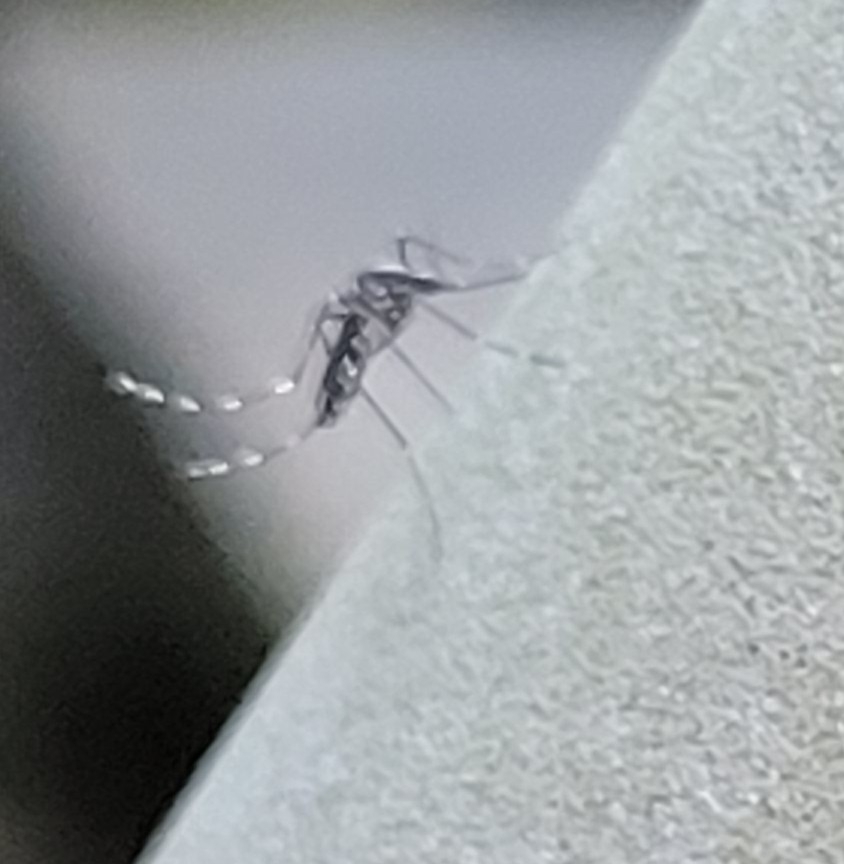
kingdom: Animalia
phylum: Arthropoda
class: Insecta
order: Diptera
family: Culicidae
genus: Aedes
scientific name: Aedes albopictus
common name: Tiger mosquito
